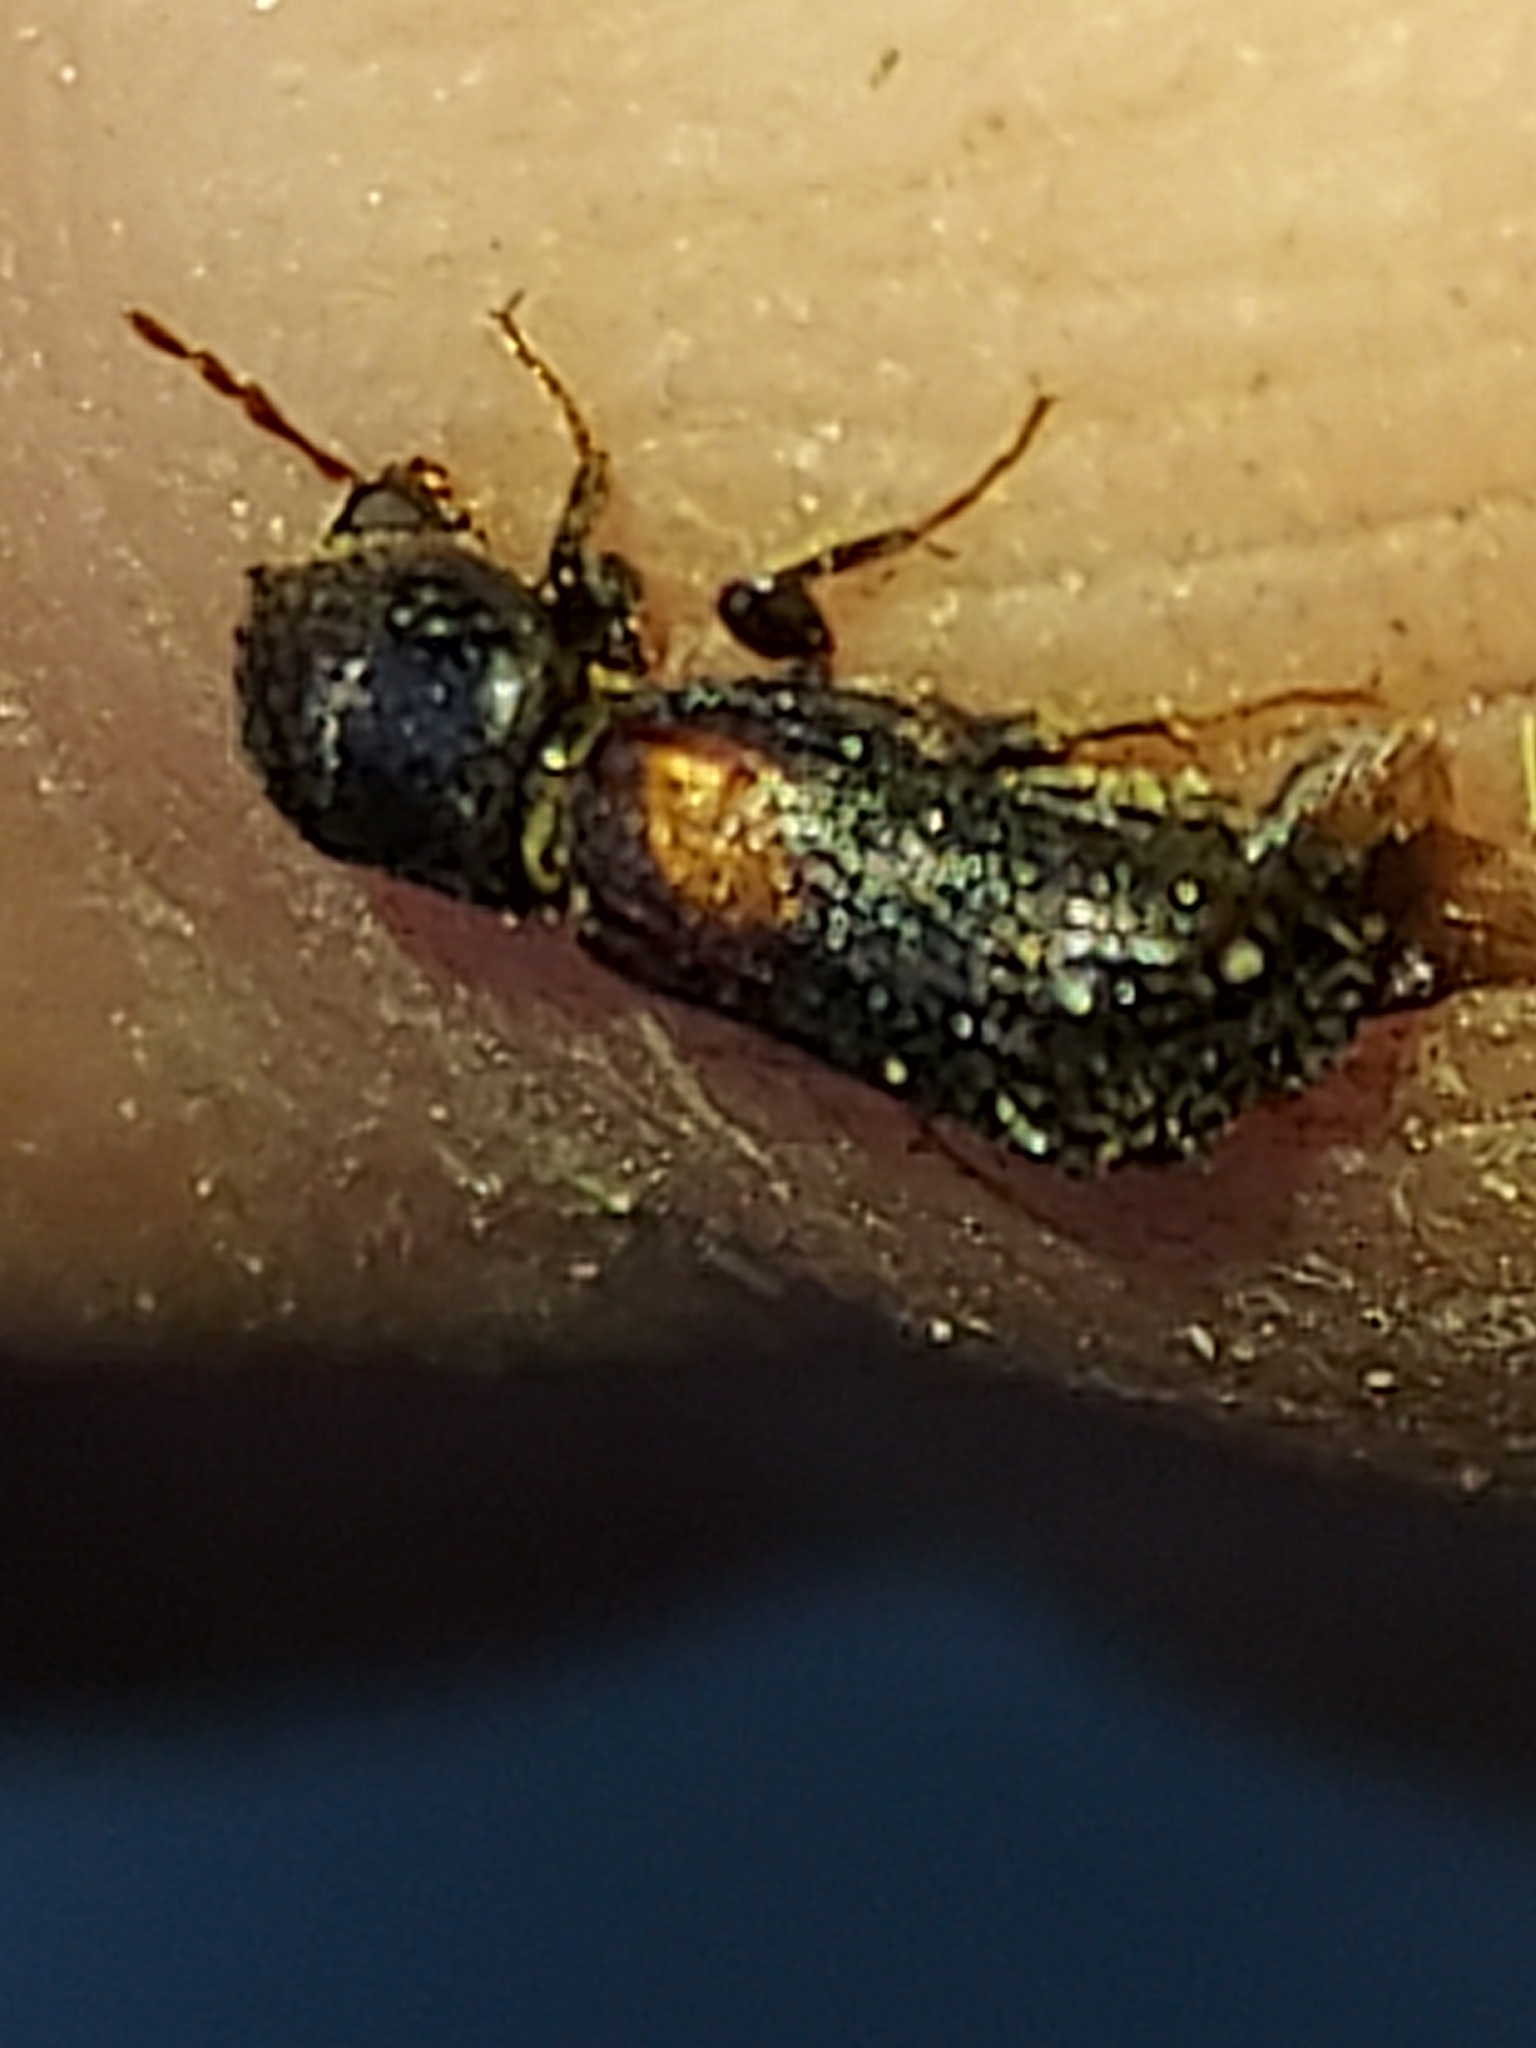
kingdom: Animalia
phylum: Arthropoda
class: Insecta
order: Coleoptera
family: Bostrichidae
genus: Xylobiops
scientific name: Xylobiops basilaris
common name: Red-shouldered bostrichid
